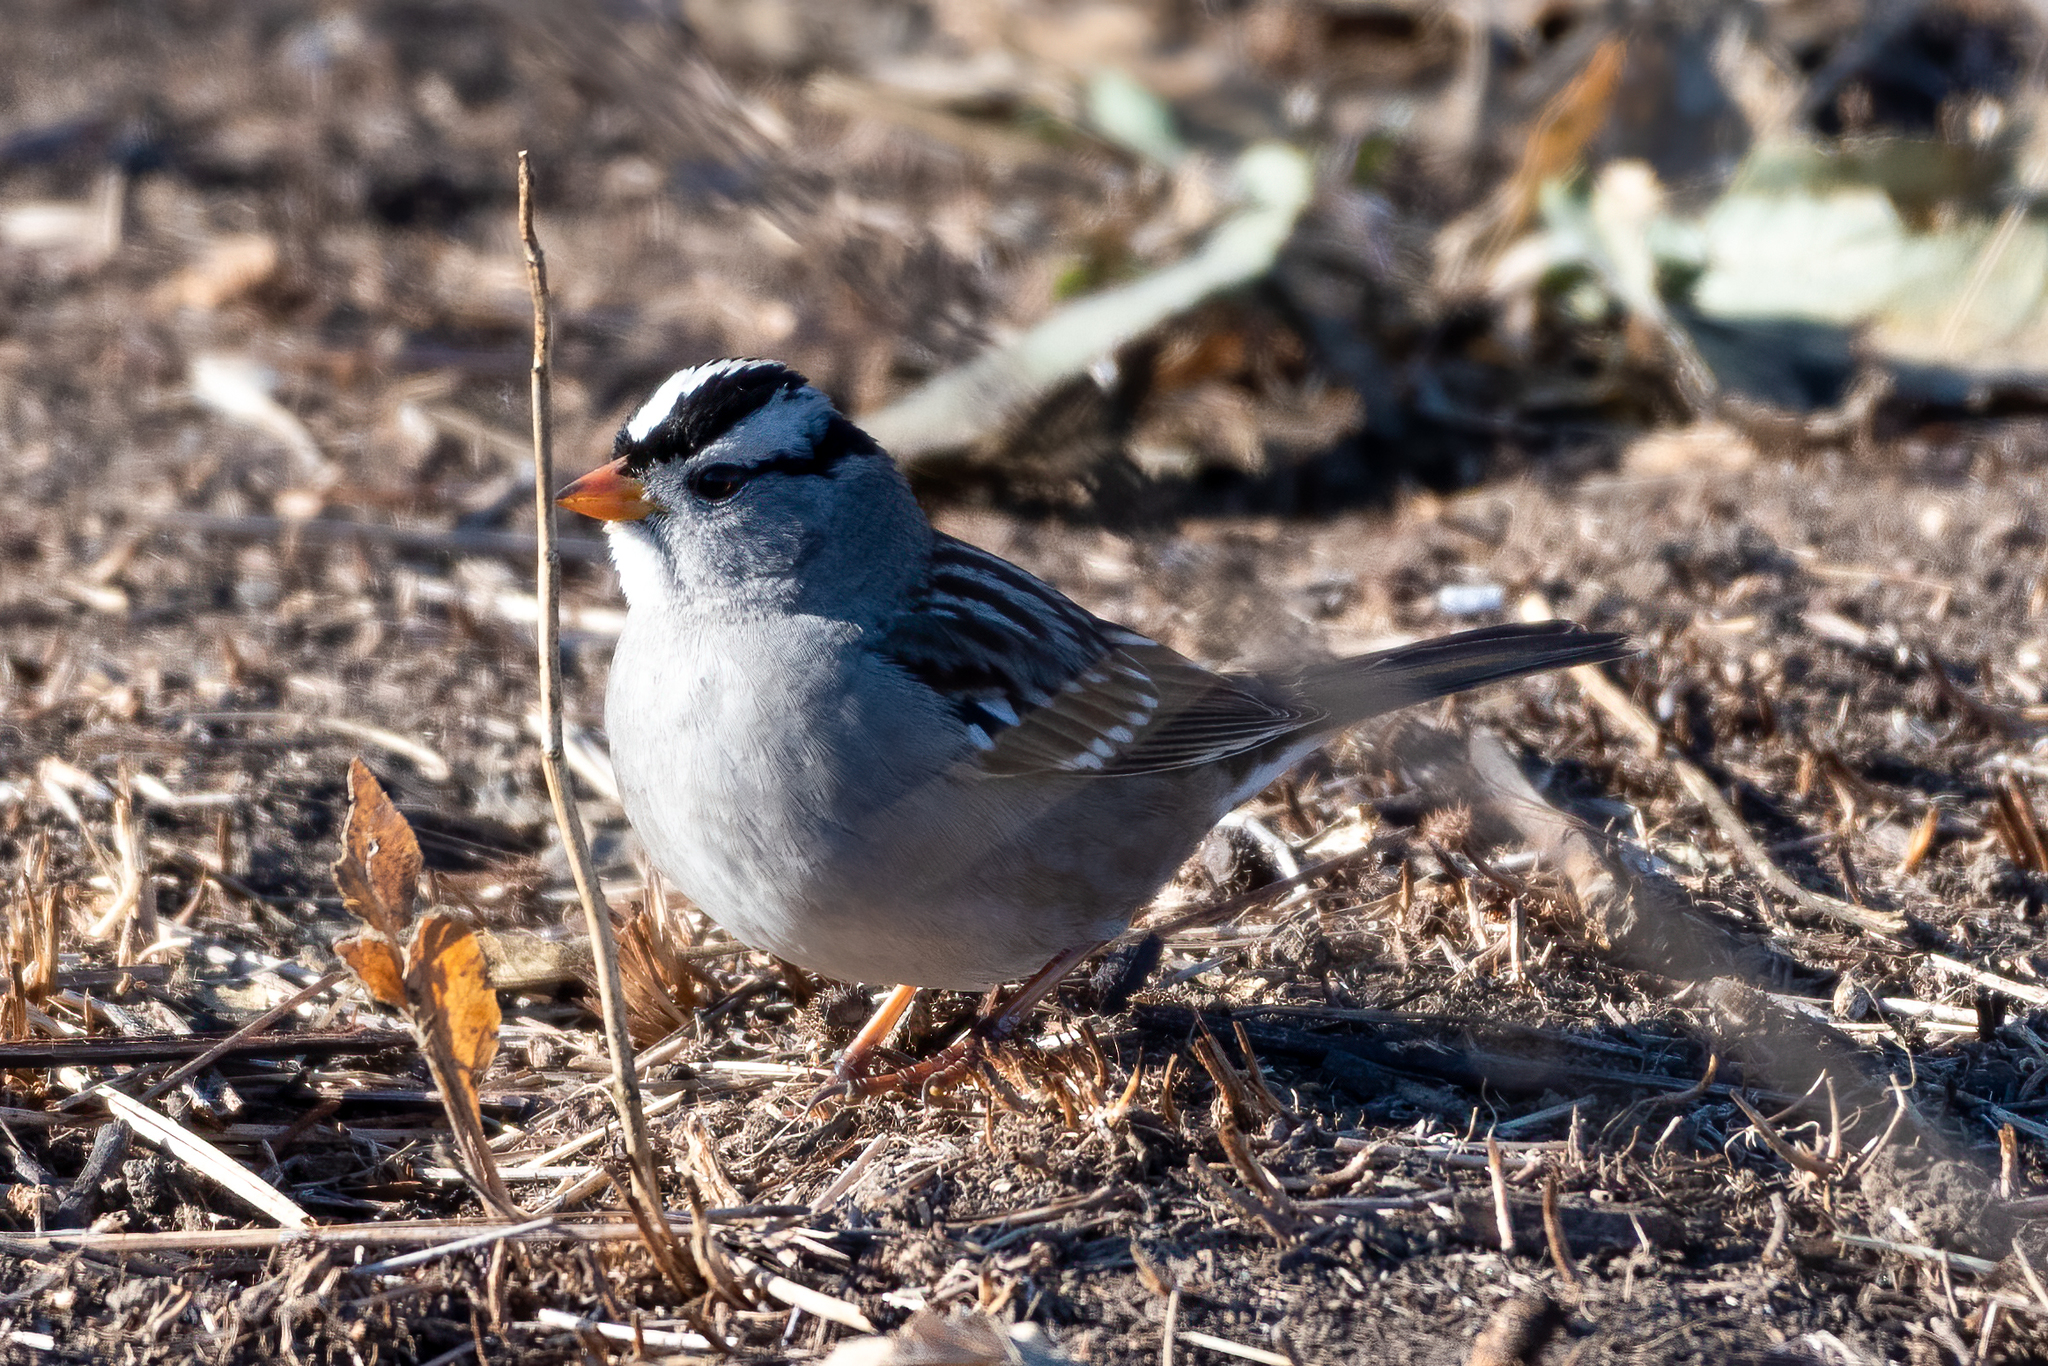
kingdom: Animalia
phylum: Chordata
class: Aves
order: Passeriformes
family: Passerellidae
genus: Zonotrichia
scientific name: Zonotrichia leucophrys
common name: White-crowned sparrow
